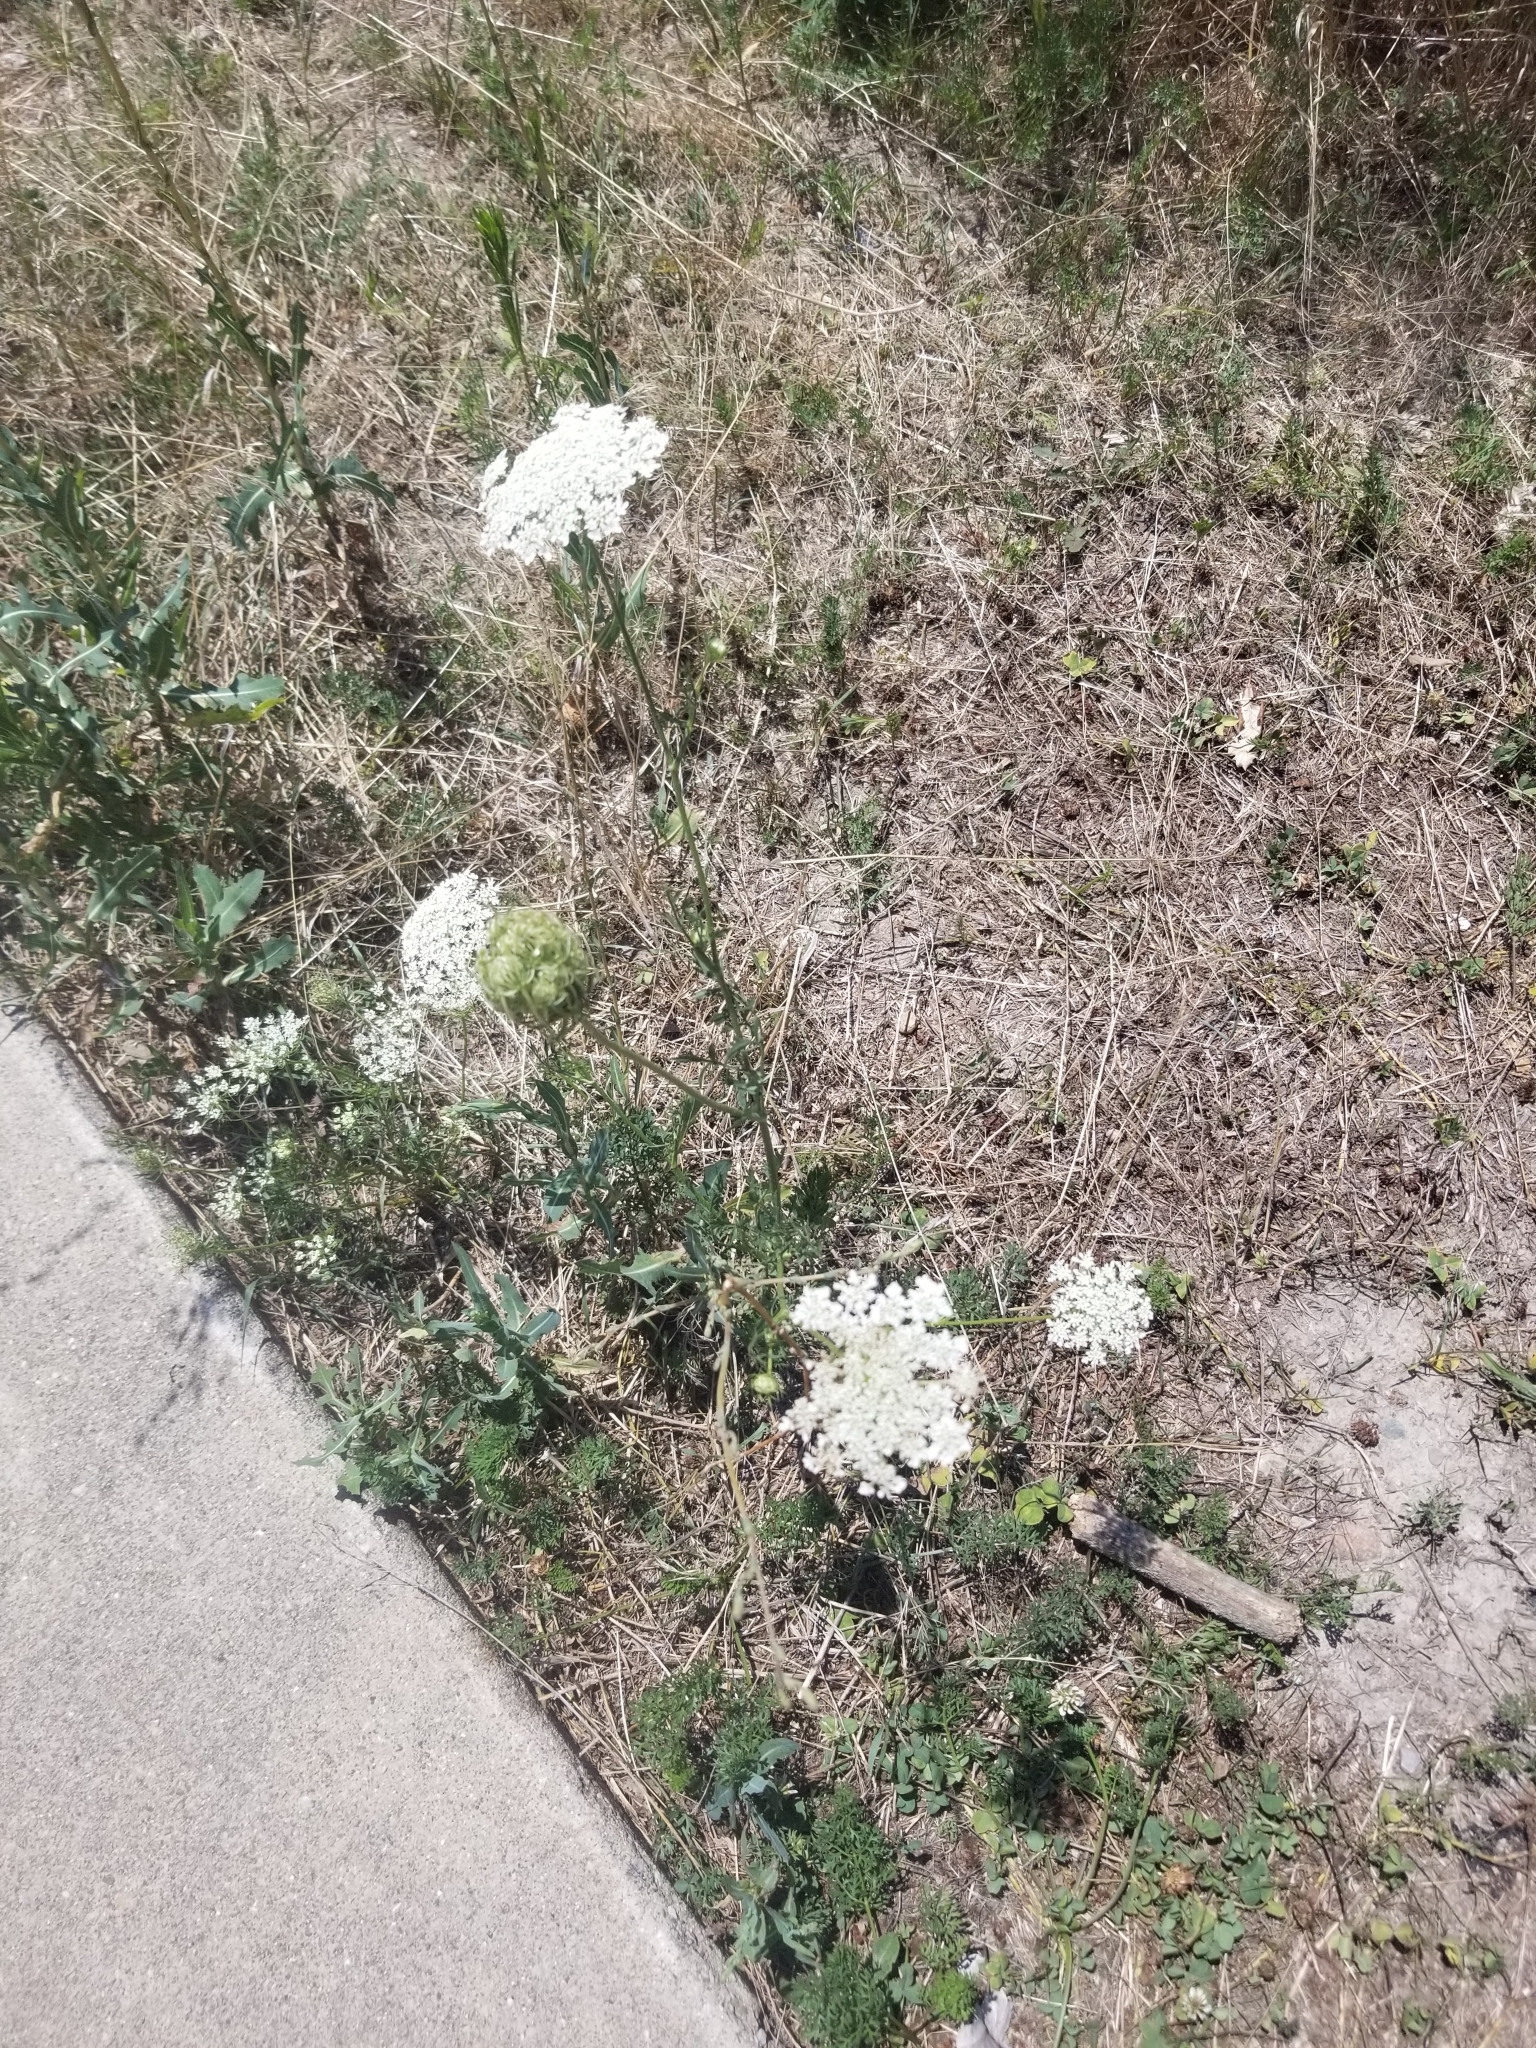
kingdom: Plantae
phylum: Tracheophyta
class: Magnoliopsida
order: Apiales
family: Apiaceae
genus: Daucus
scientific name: Daucus carota
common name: Wild carrot
